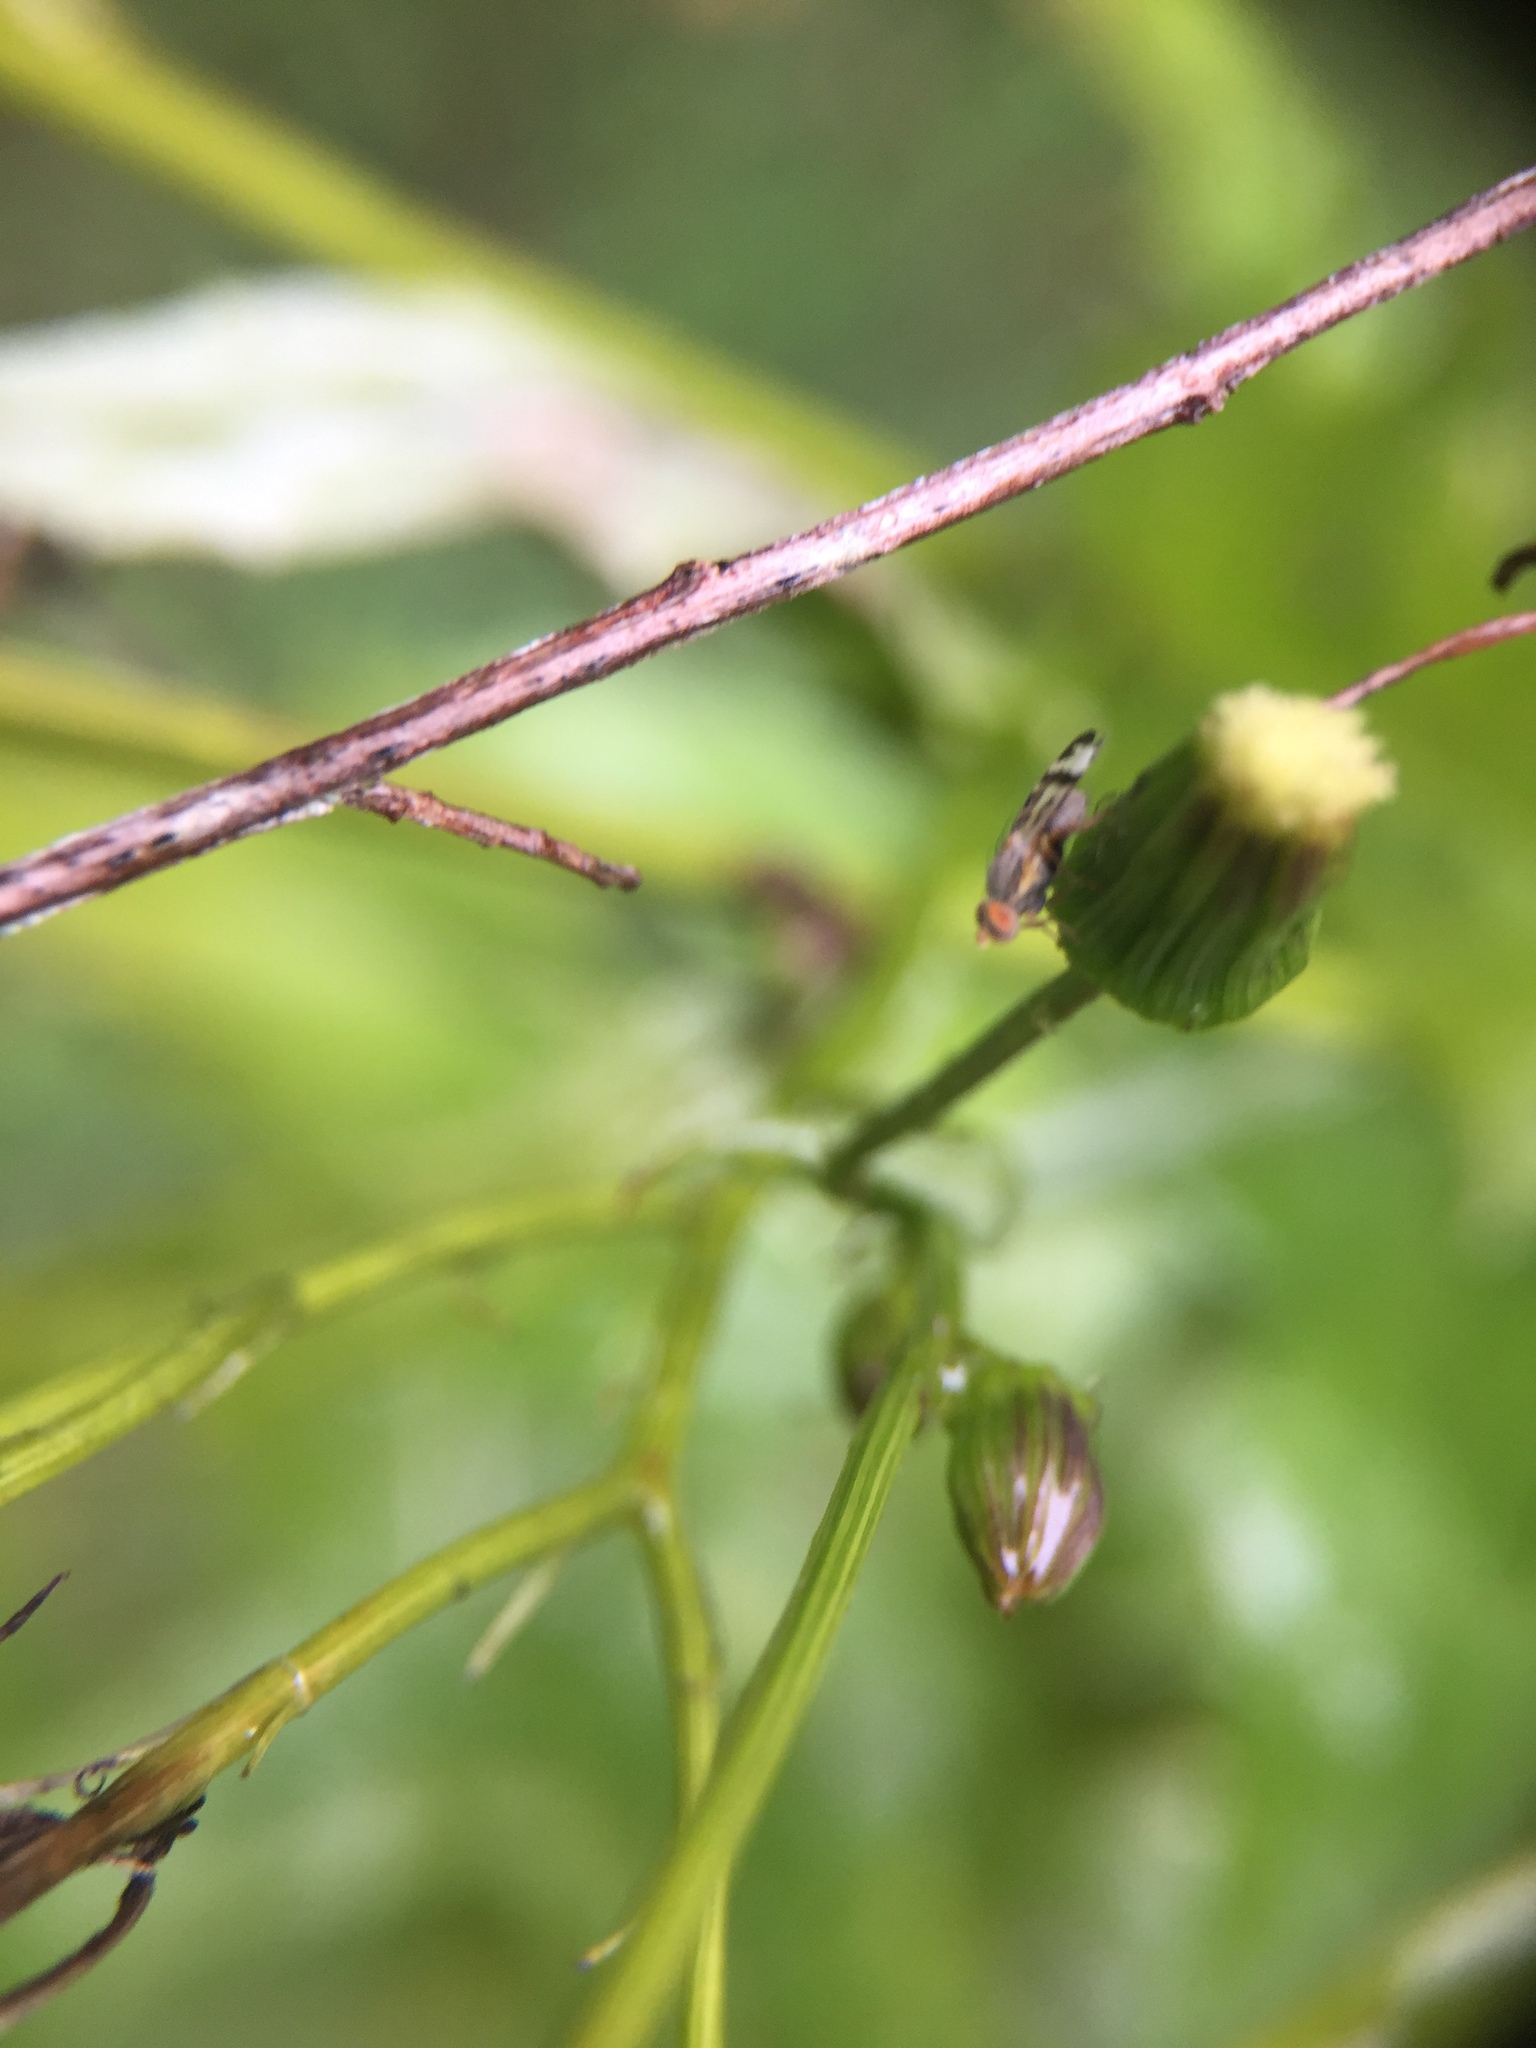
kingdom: Animalia
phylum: Arthropoda
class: Insecta
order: Diptera
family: Tephritidae
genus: Sphenella
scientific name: Sphenella ruficeps
